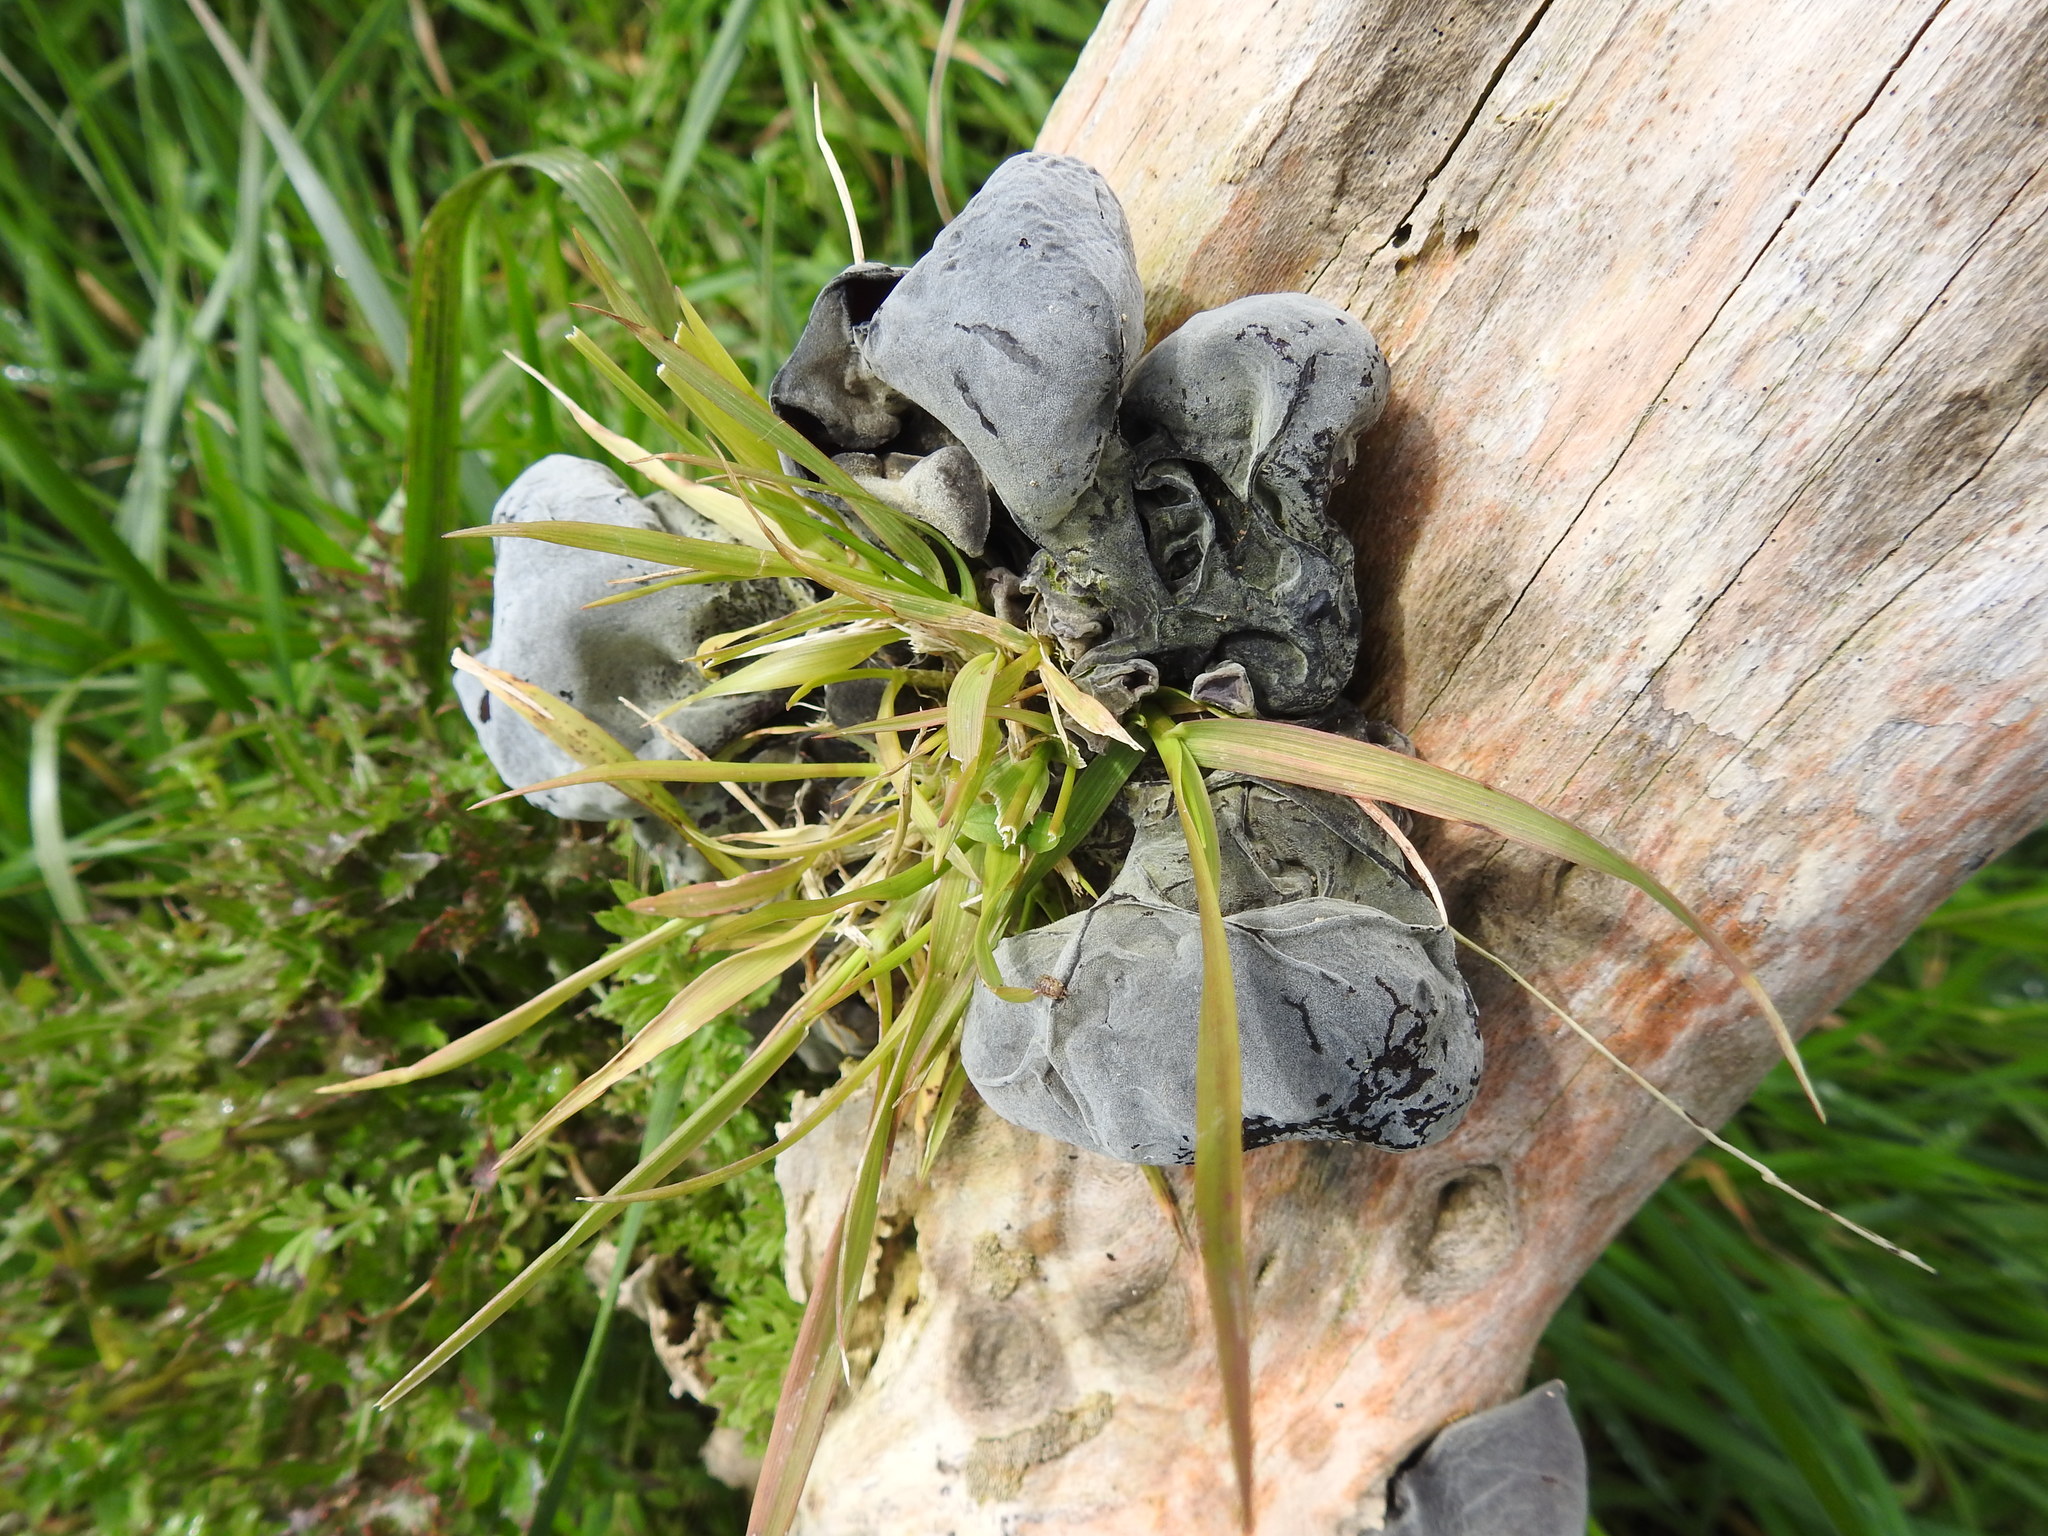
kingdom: Fungi
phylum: Basidiomycota
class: Agaricomycetes
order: Auriculariales
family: Auriculariaceae
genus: Auricularia
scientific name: Auricularia cornea
